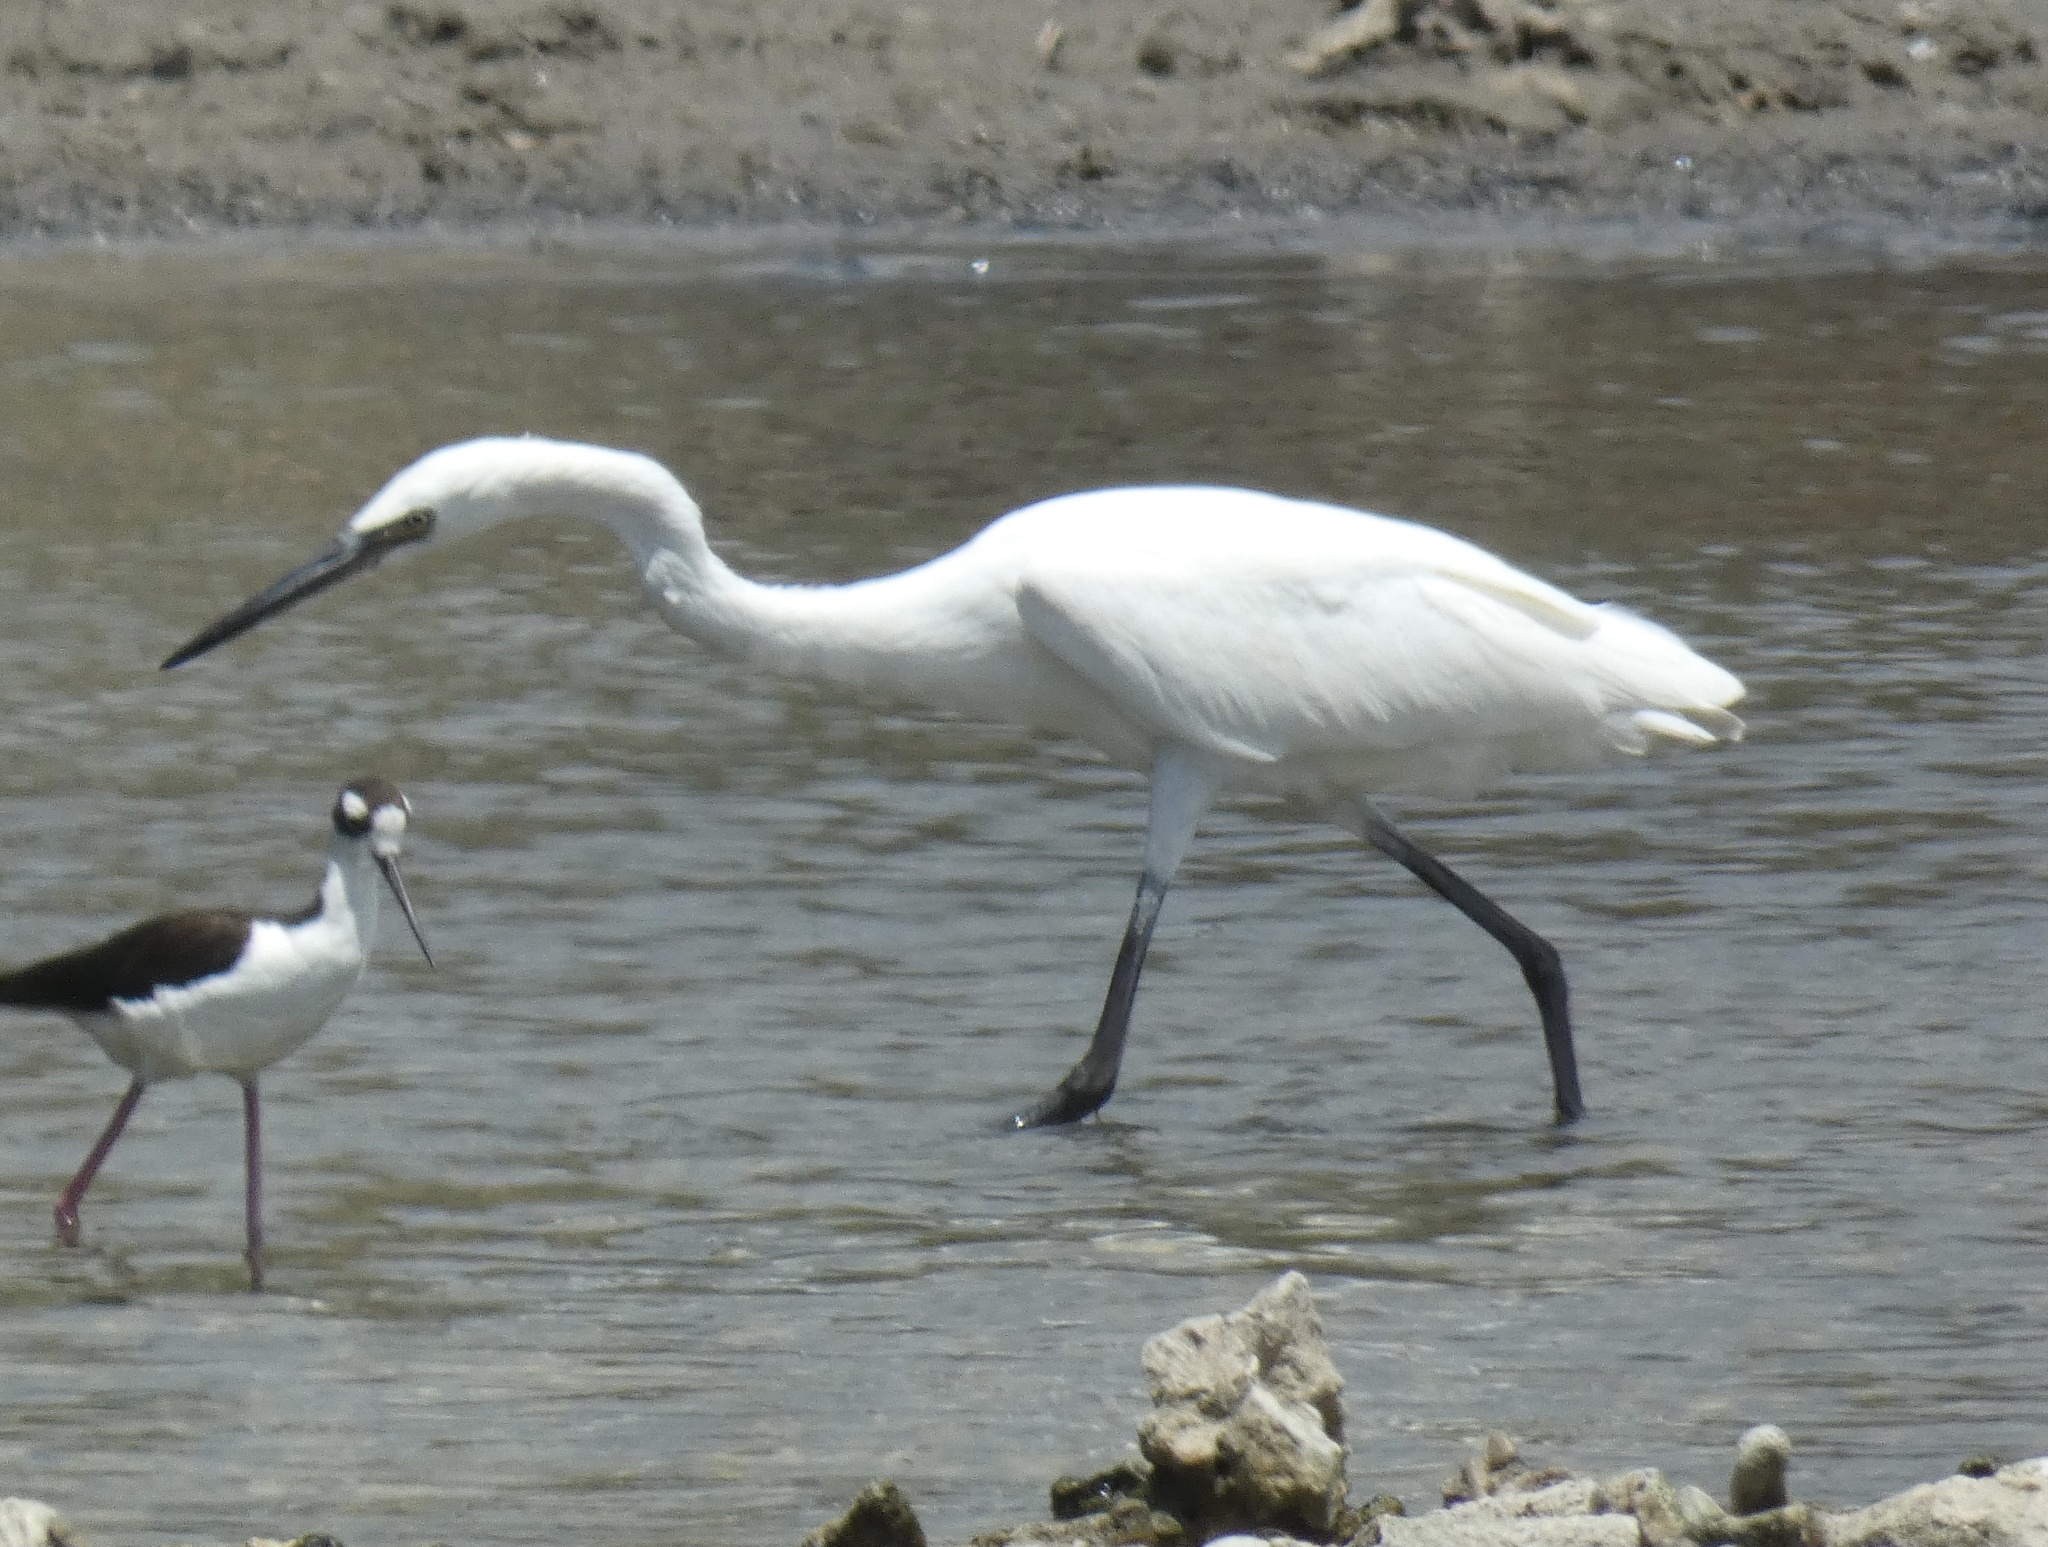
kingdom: Animalia
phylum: Chordata
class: Aves
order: Pelecaniformes
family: Ardeidae
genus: Egretta
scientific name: Egretta rufescens
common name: Reddish egret
